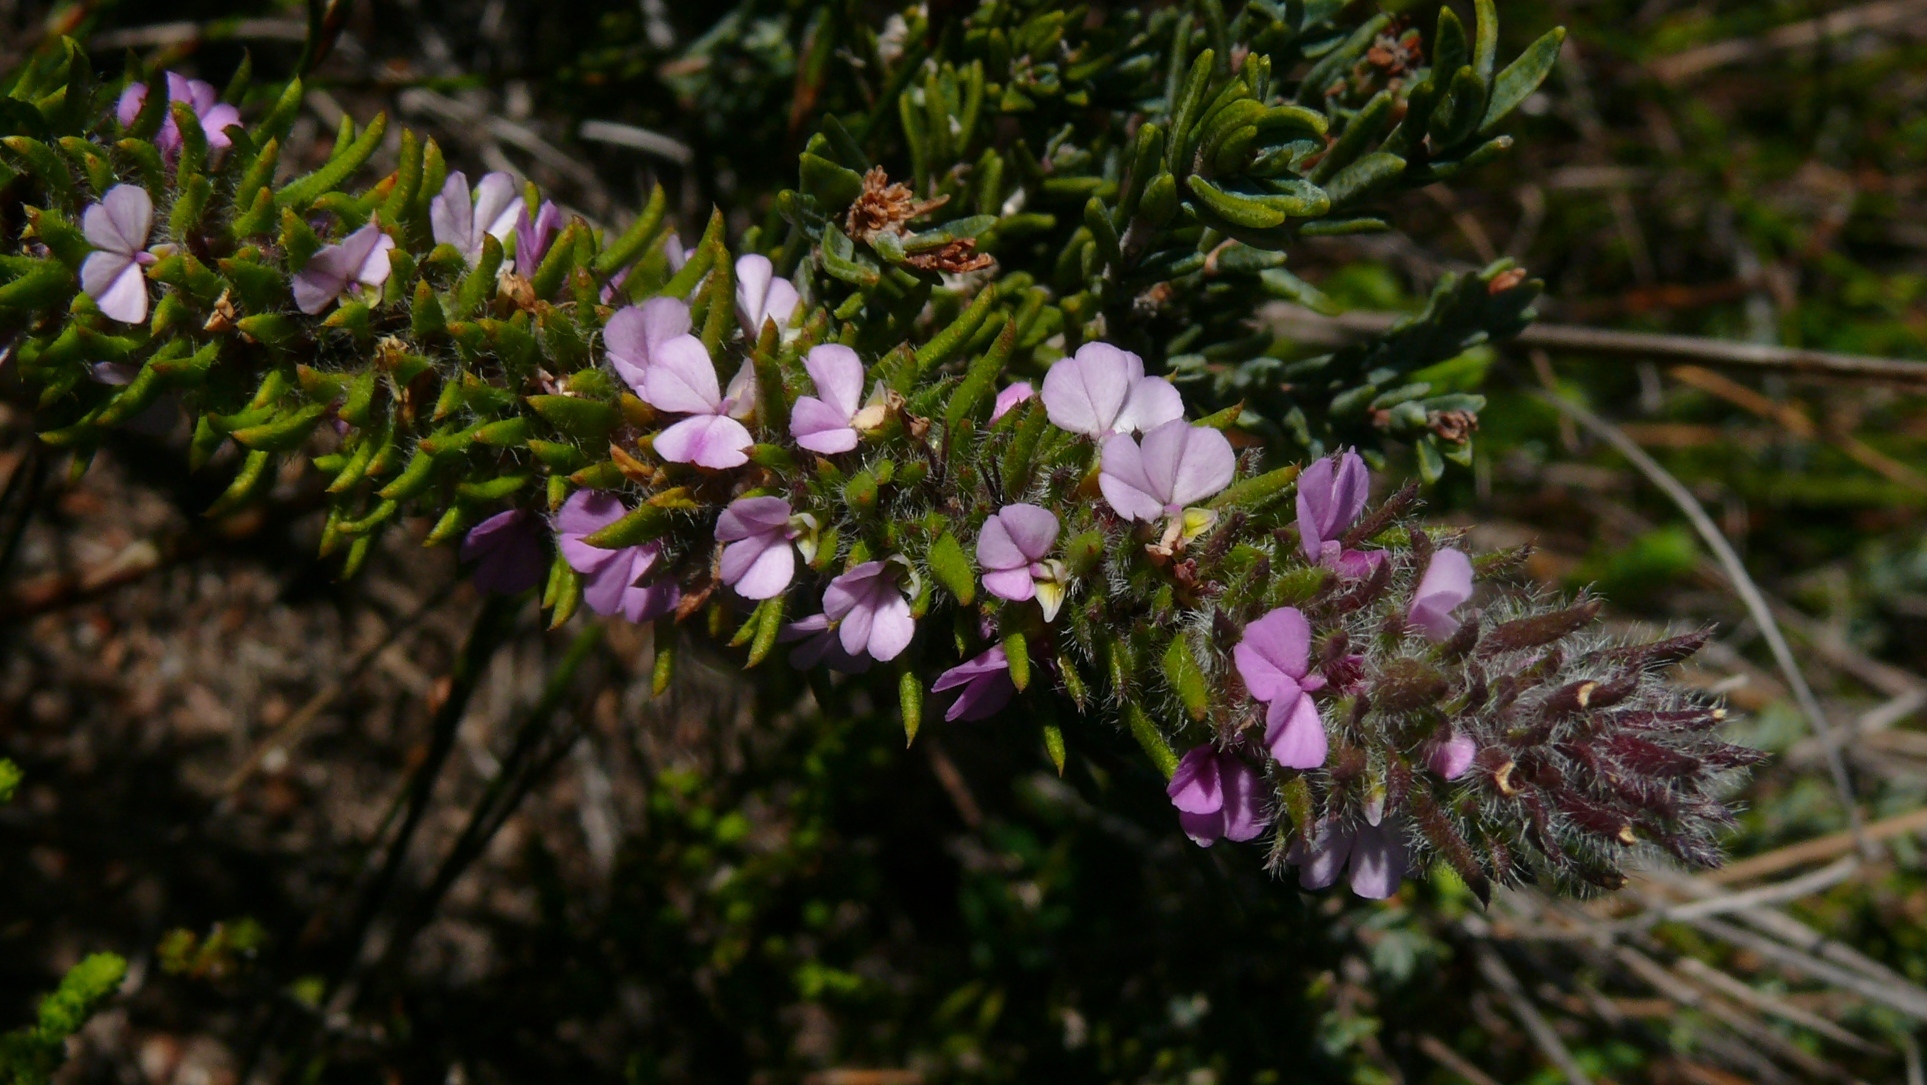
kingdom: Plantae
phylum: Tracheophyta
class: Magnoliopsida
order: Fabales
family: Polygalaceae
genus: Muraltia
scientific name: Muraltia thunbergii
